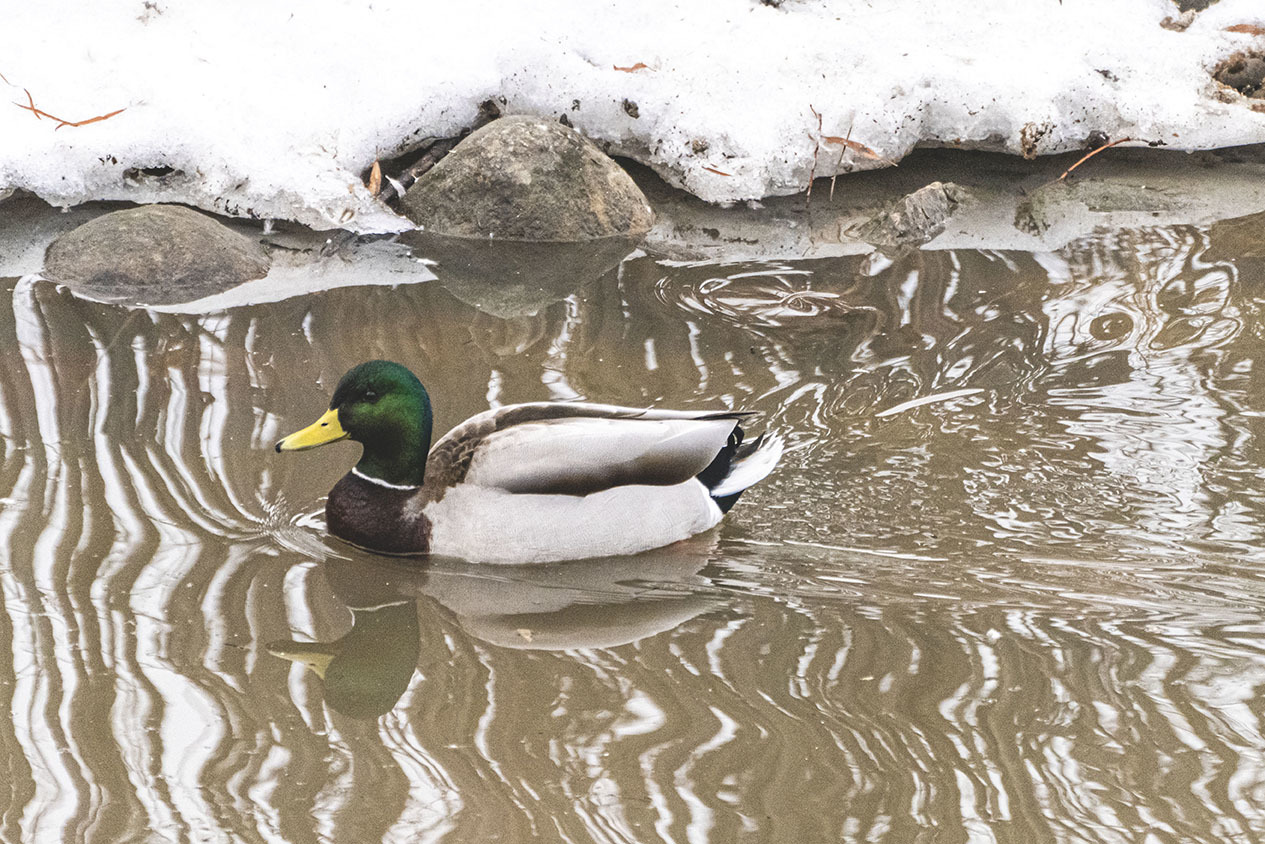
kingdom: Animalia
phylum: Chordata
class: Aves
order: Anseriformes
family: Anatidae
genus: Anas
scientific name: Anas platyrhynchos
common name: Mallard
